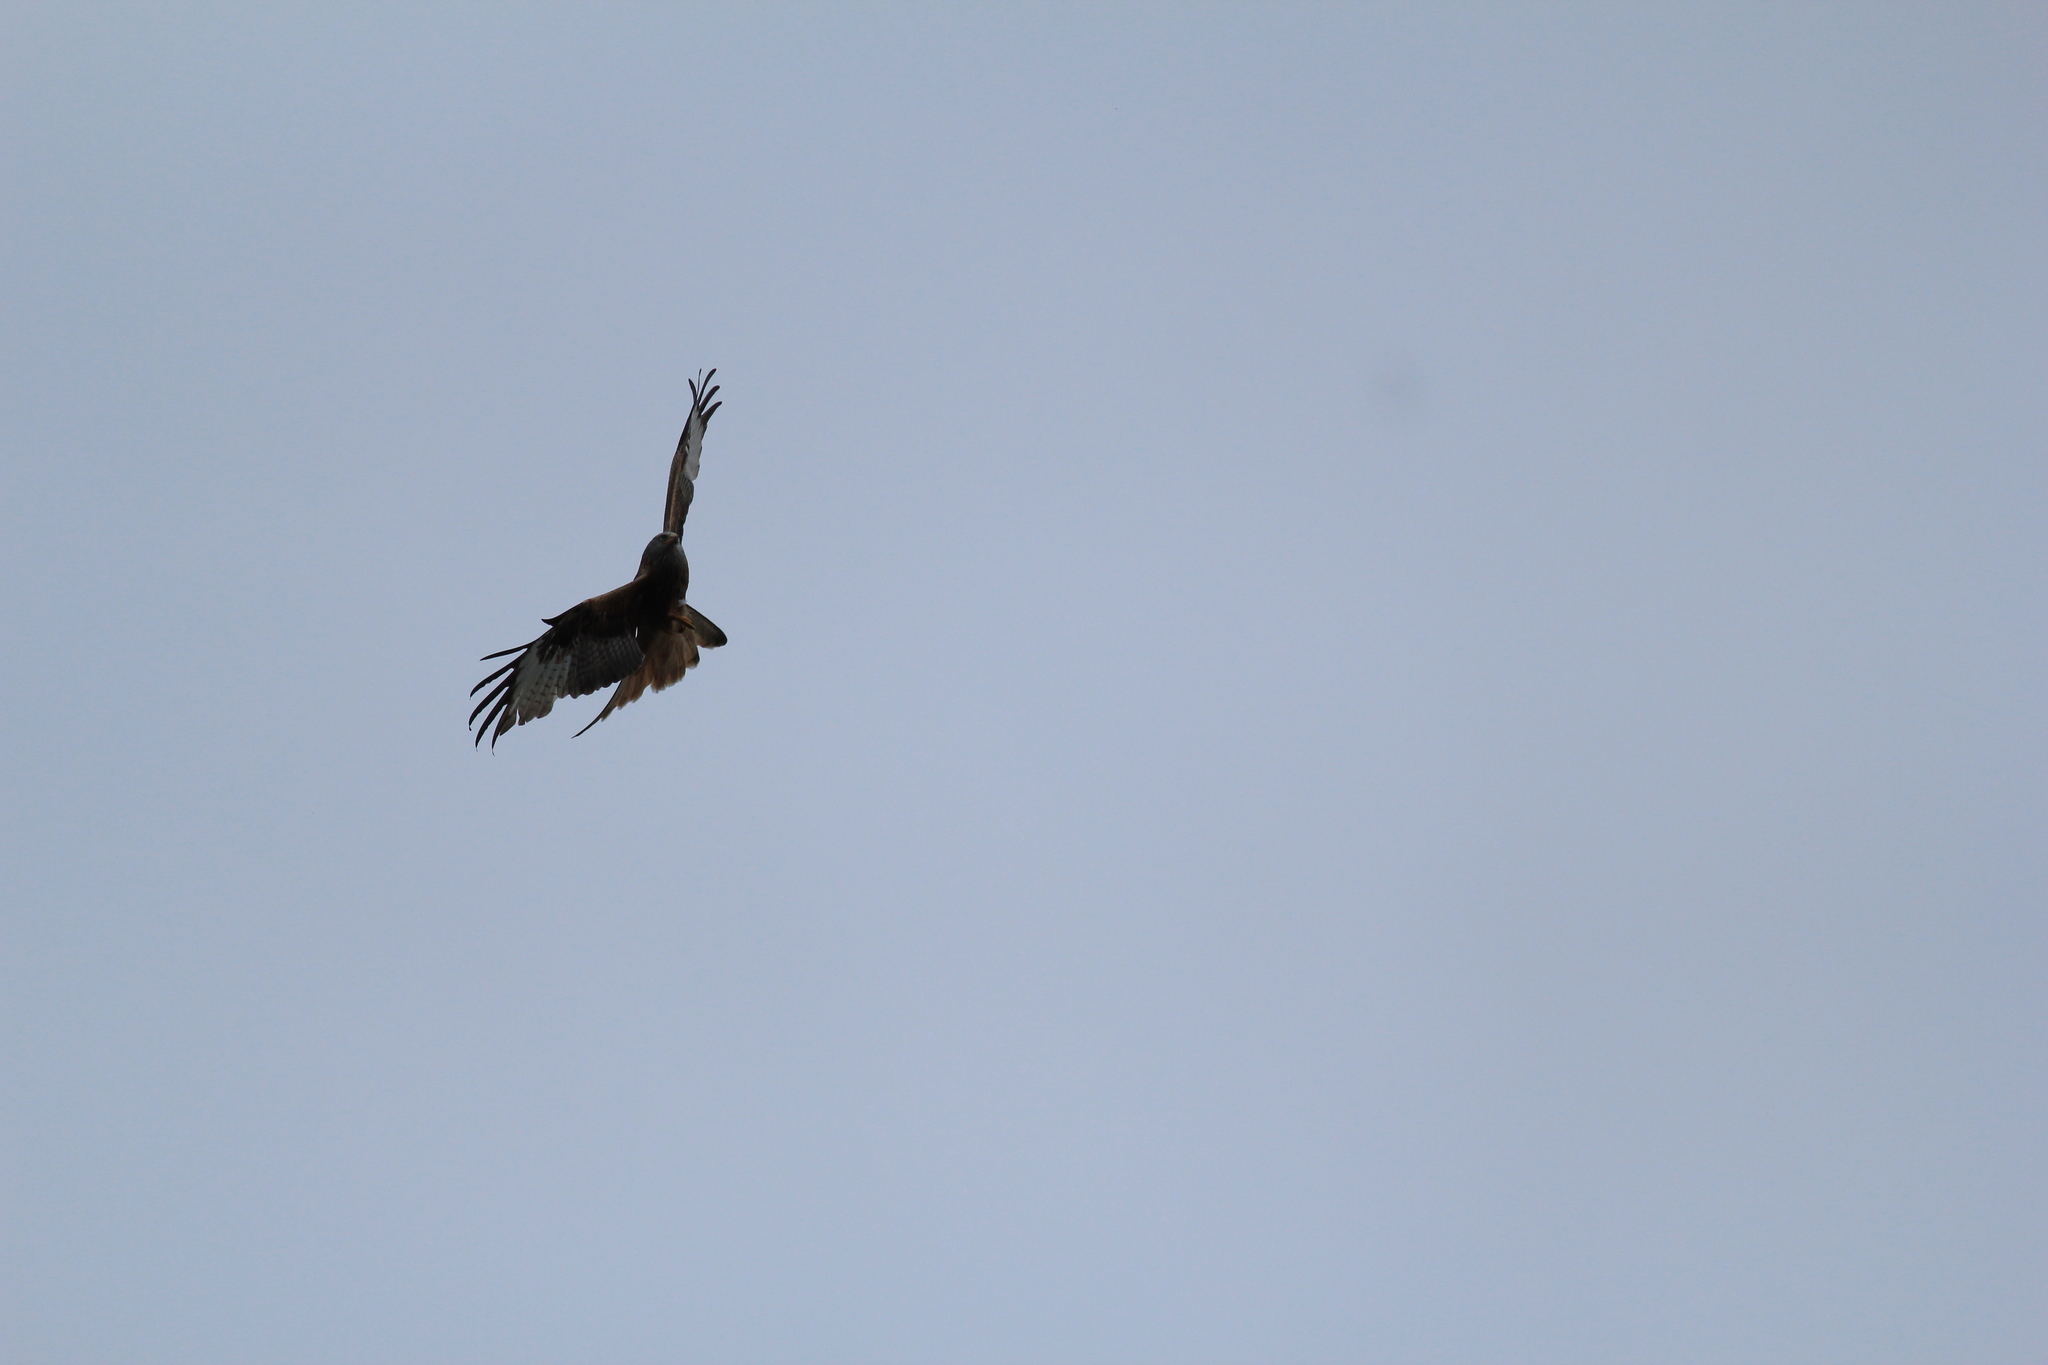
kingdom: Animalia
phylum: Chordata
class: Aves
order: Accipitriformes
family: Accipitridae
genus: Milvus
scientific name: Milvus milvus
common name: Red kite
